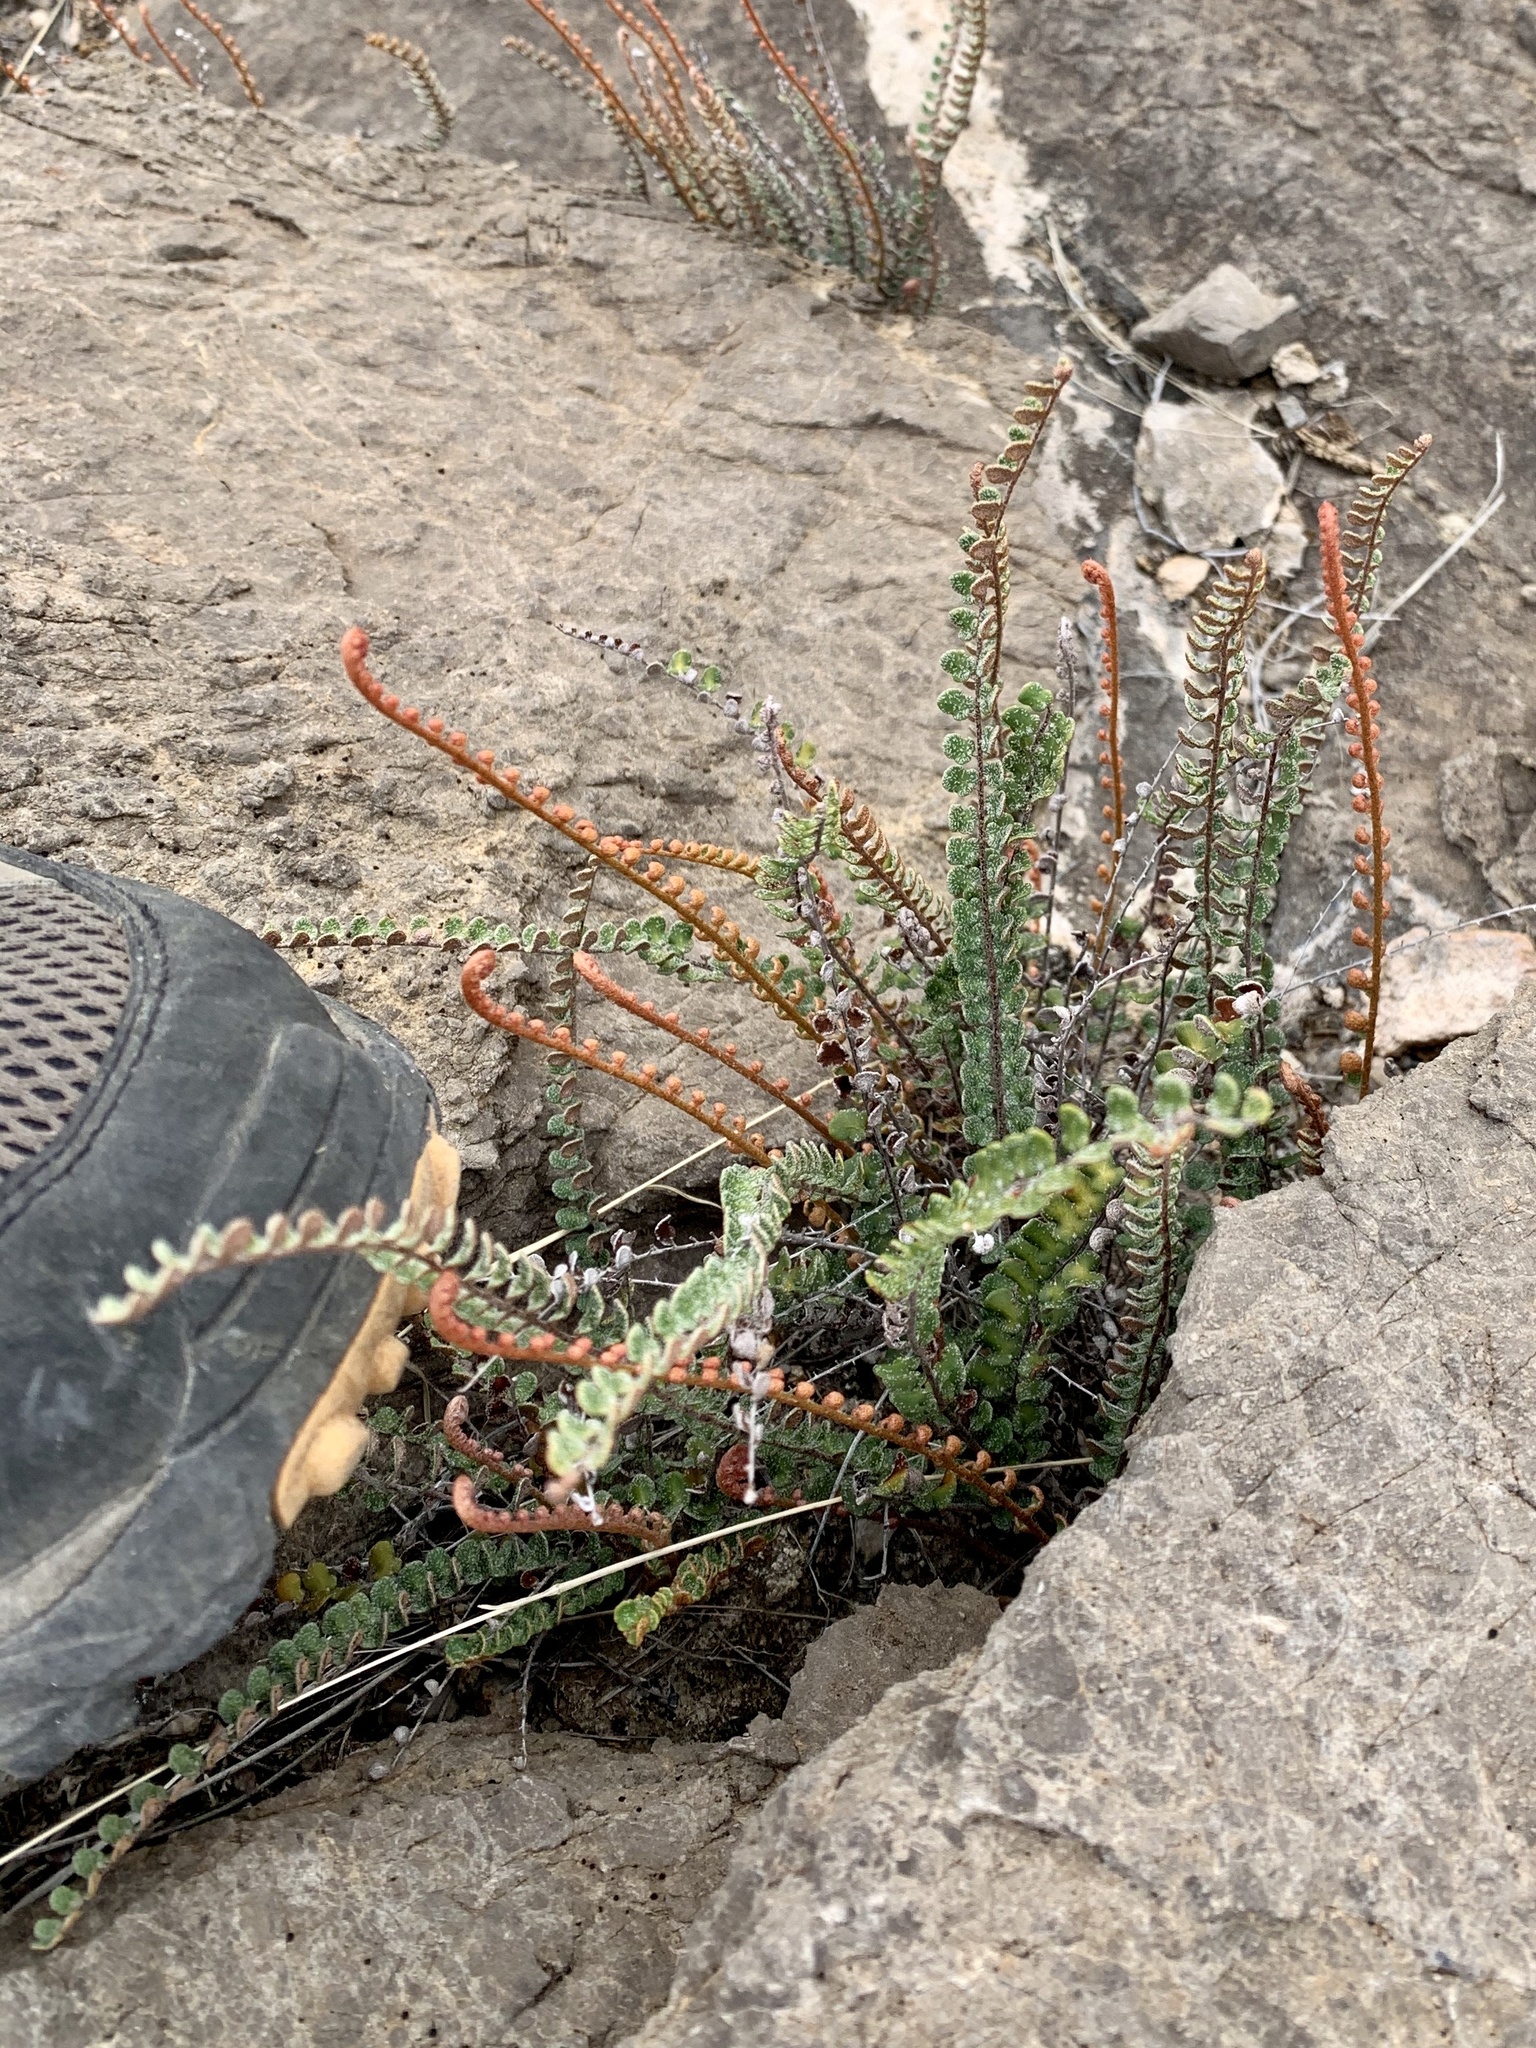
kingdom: Plantae
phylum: Tracheophyta
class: Polypodiopsida
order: Polypodiales
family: Pteridaceae
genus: Astrolepis
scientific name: Astrolepis cochisensis
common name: Scaly cloak fern
